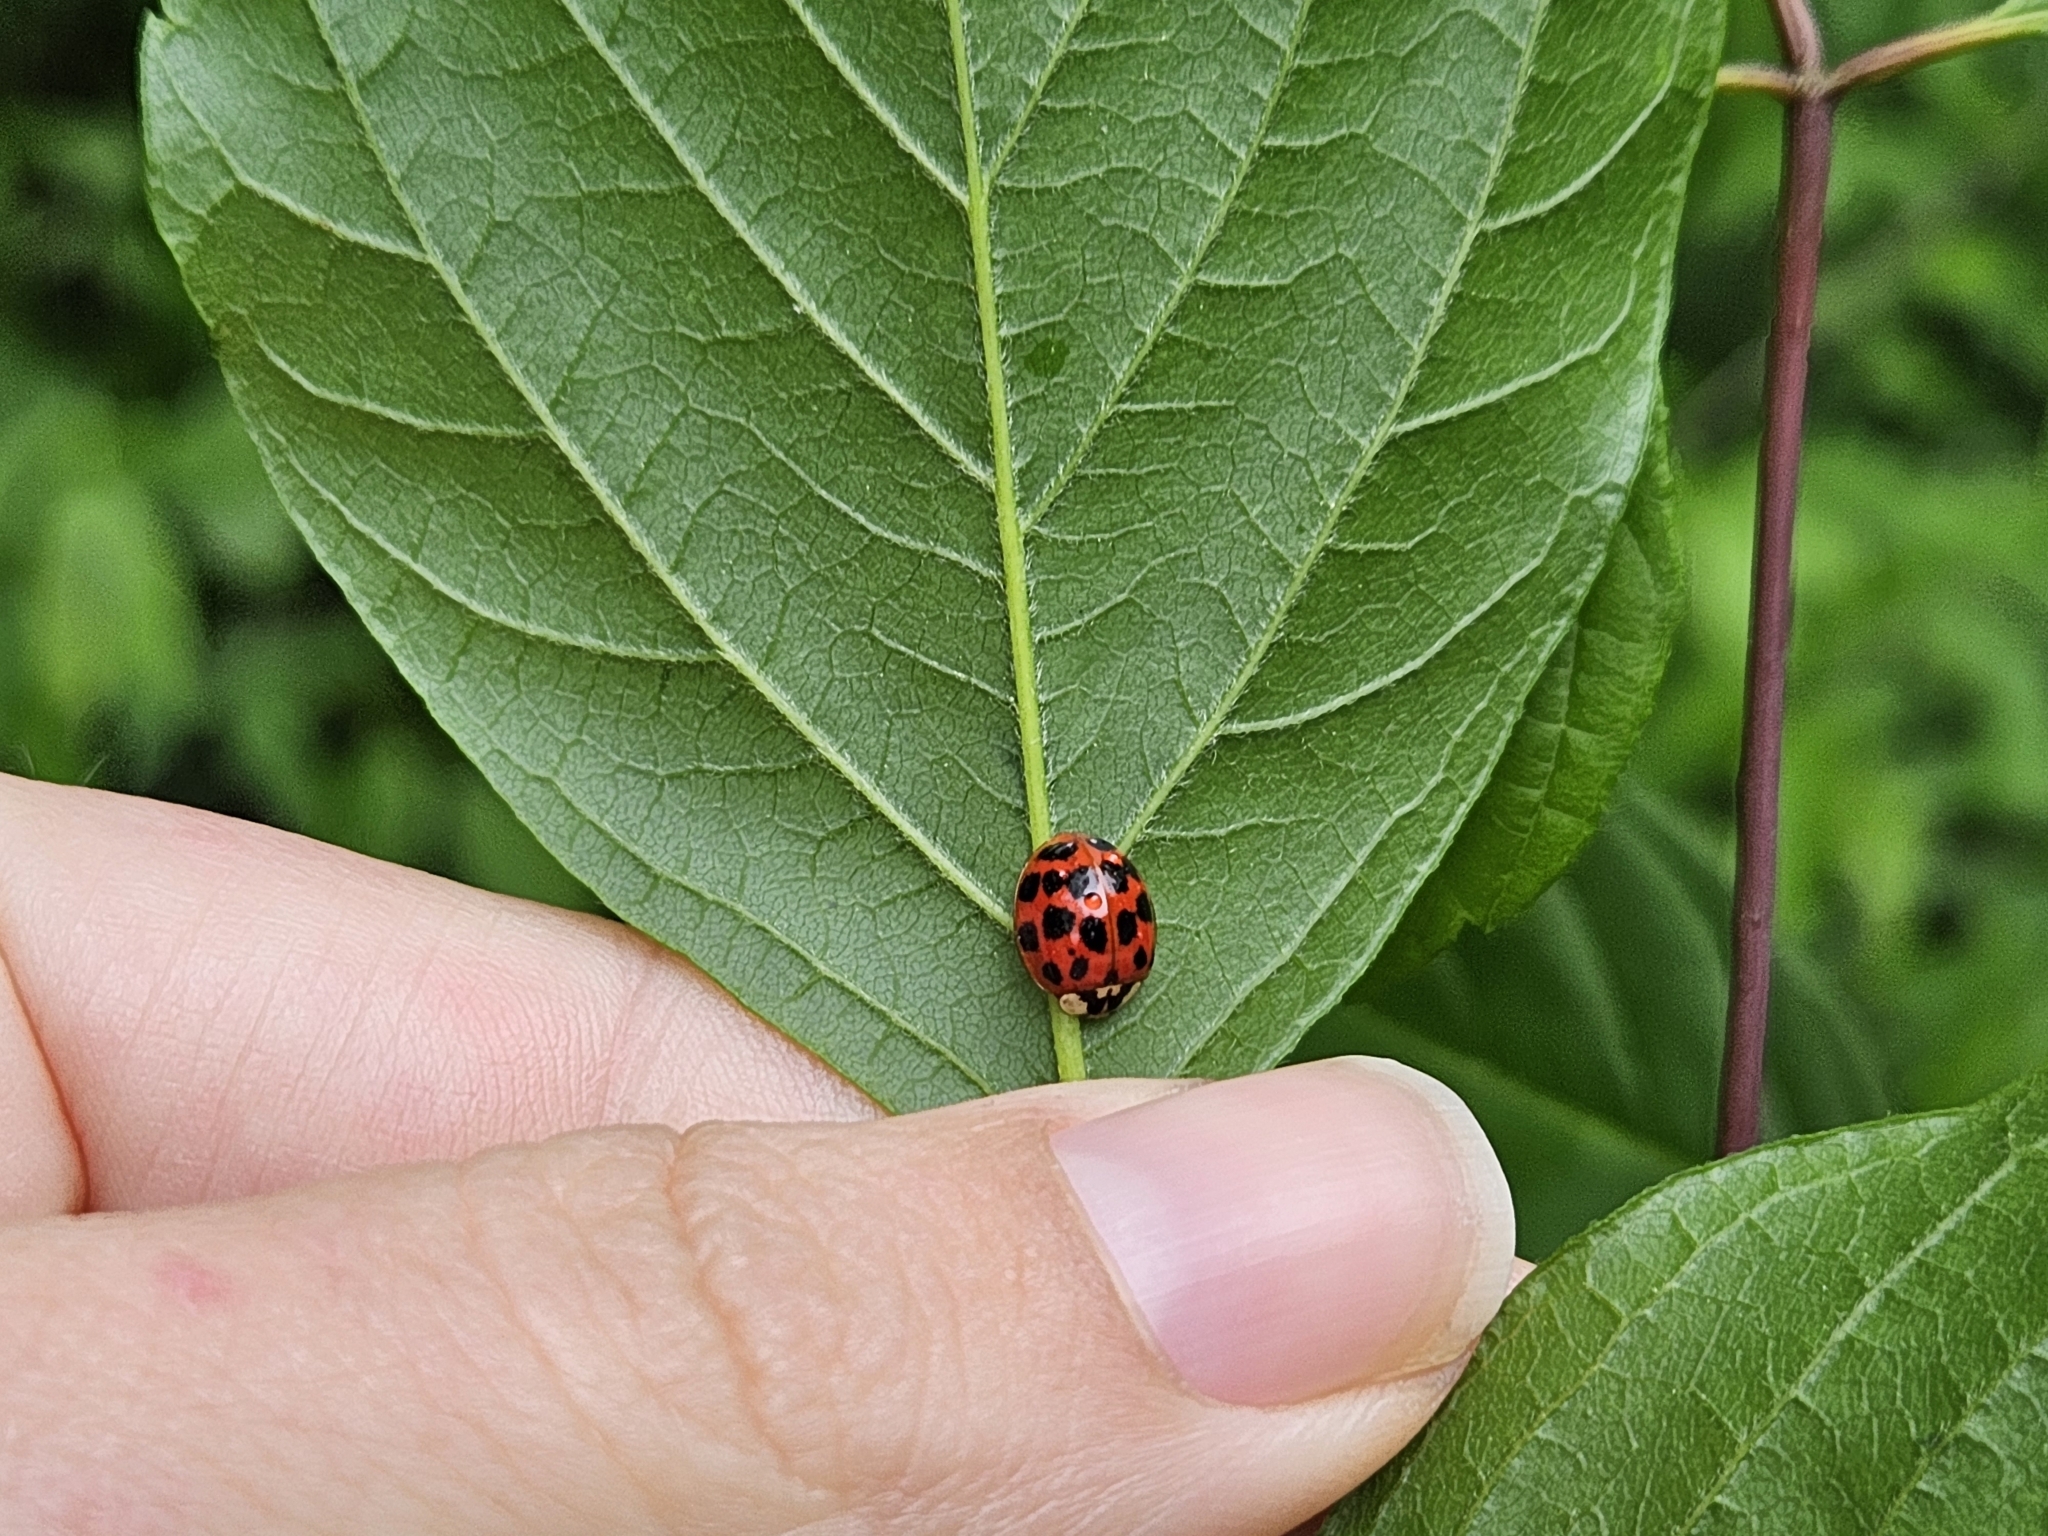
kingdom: Animalia
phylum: Arthropoda
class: Insecta
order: Coleoptera
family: Coccinellidae
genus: Harmonia
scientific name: Harmonia axyridis
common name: Harlequin ladybird
